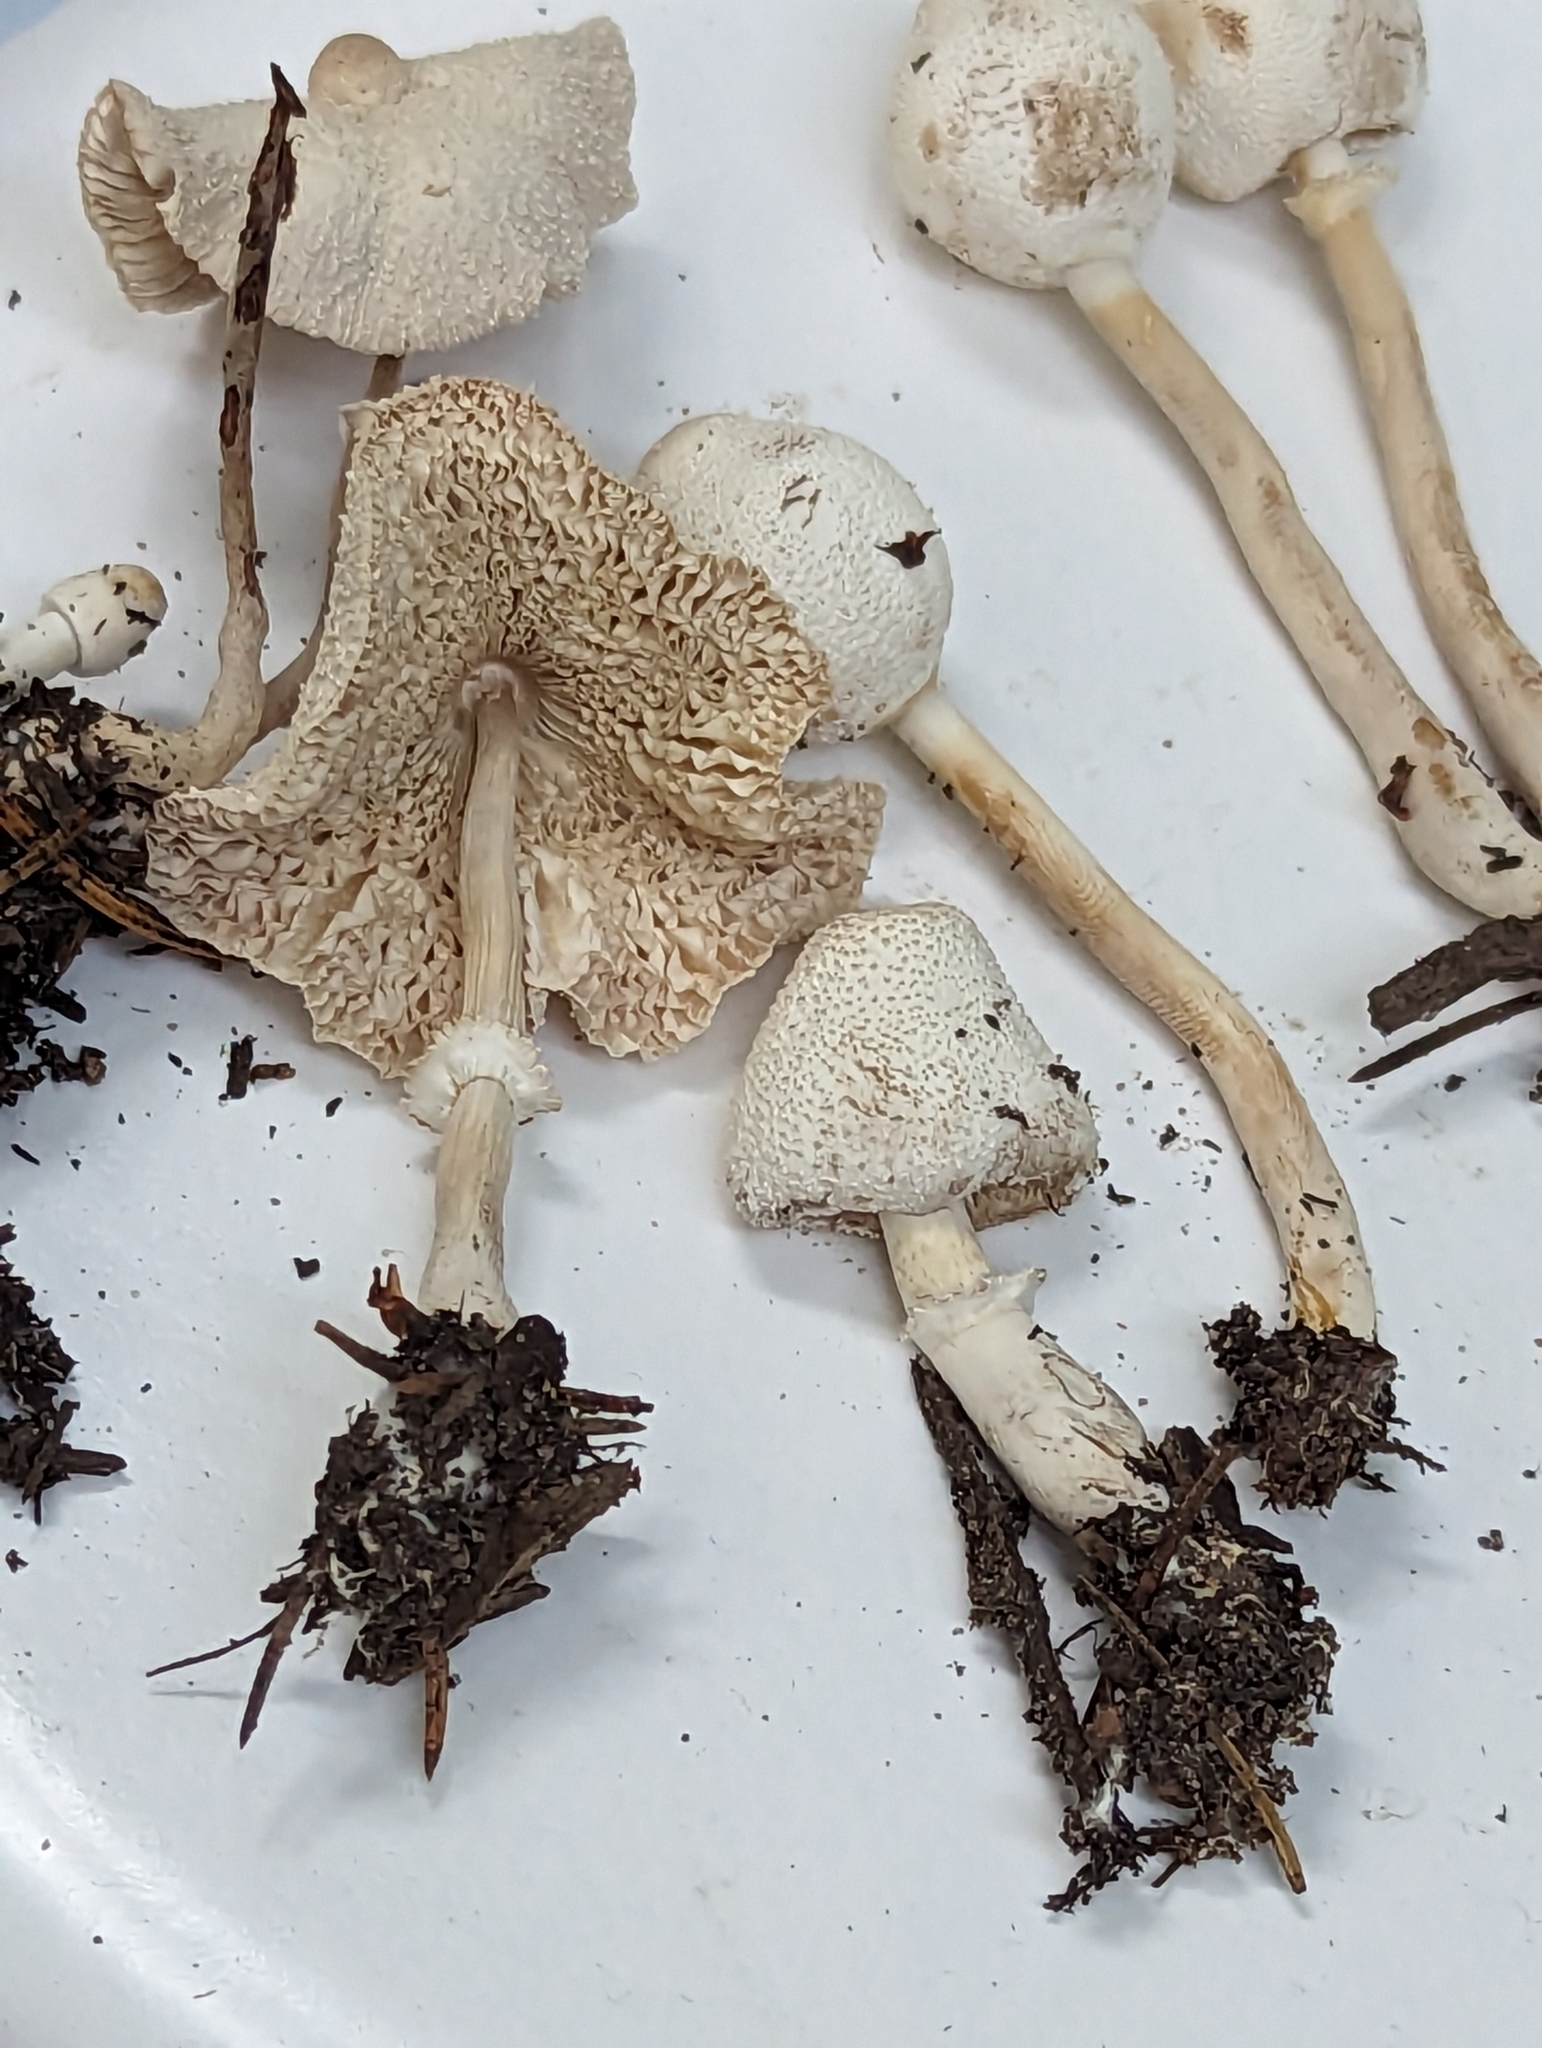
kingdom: Fungi
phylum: Basidiomycota
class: Agaricomycetes
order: Agaricales
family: Agaricaceae
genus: Leucocoprinus
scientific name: Leucocoprinus cepistipes
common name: Onion-stalk parasol
